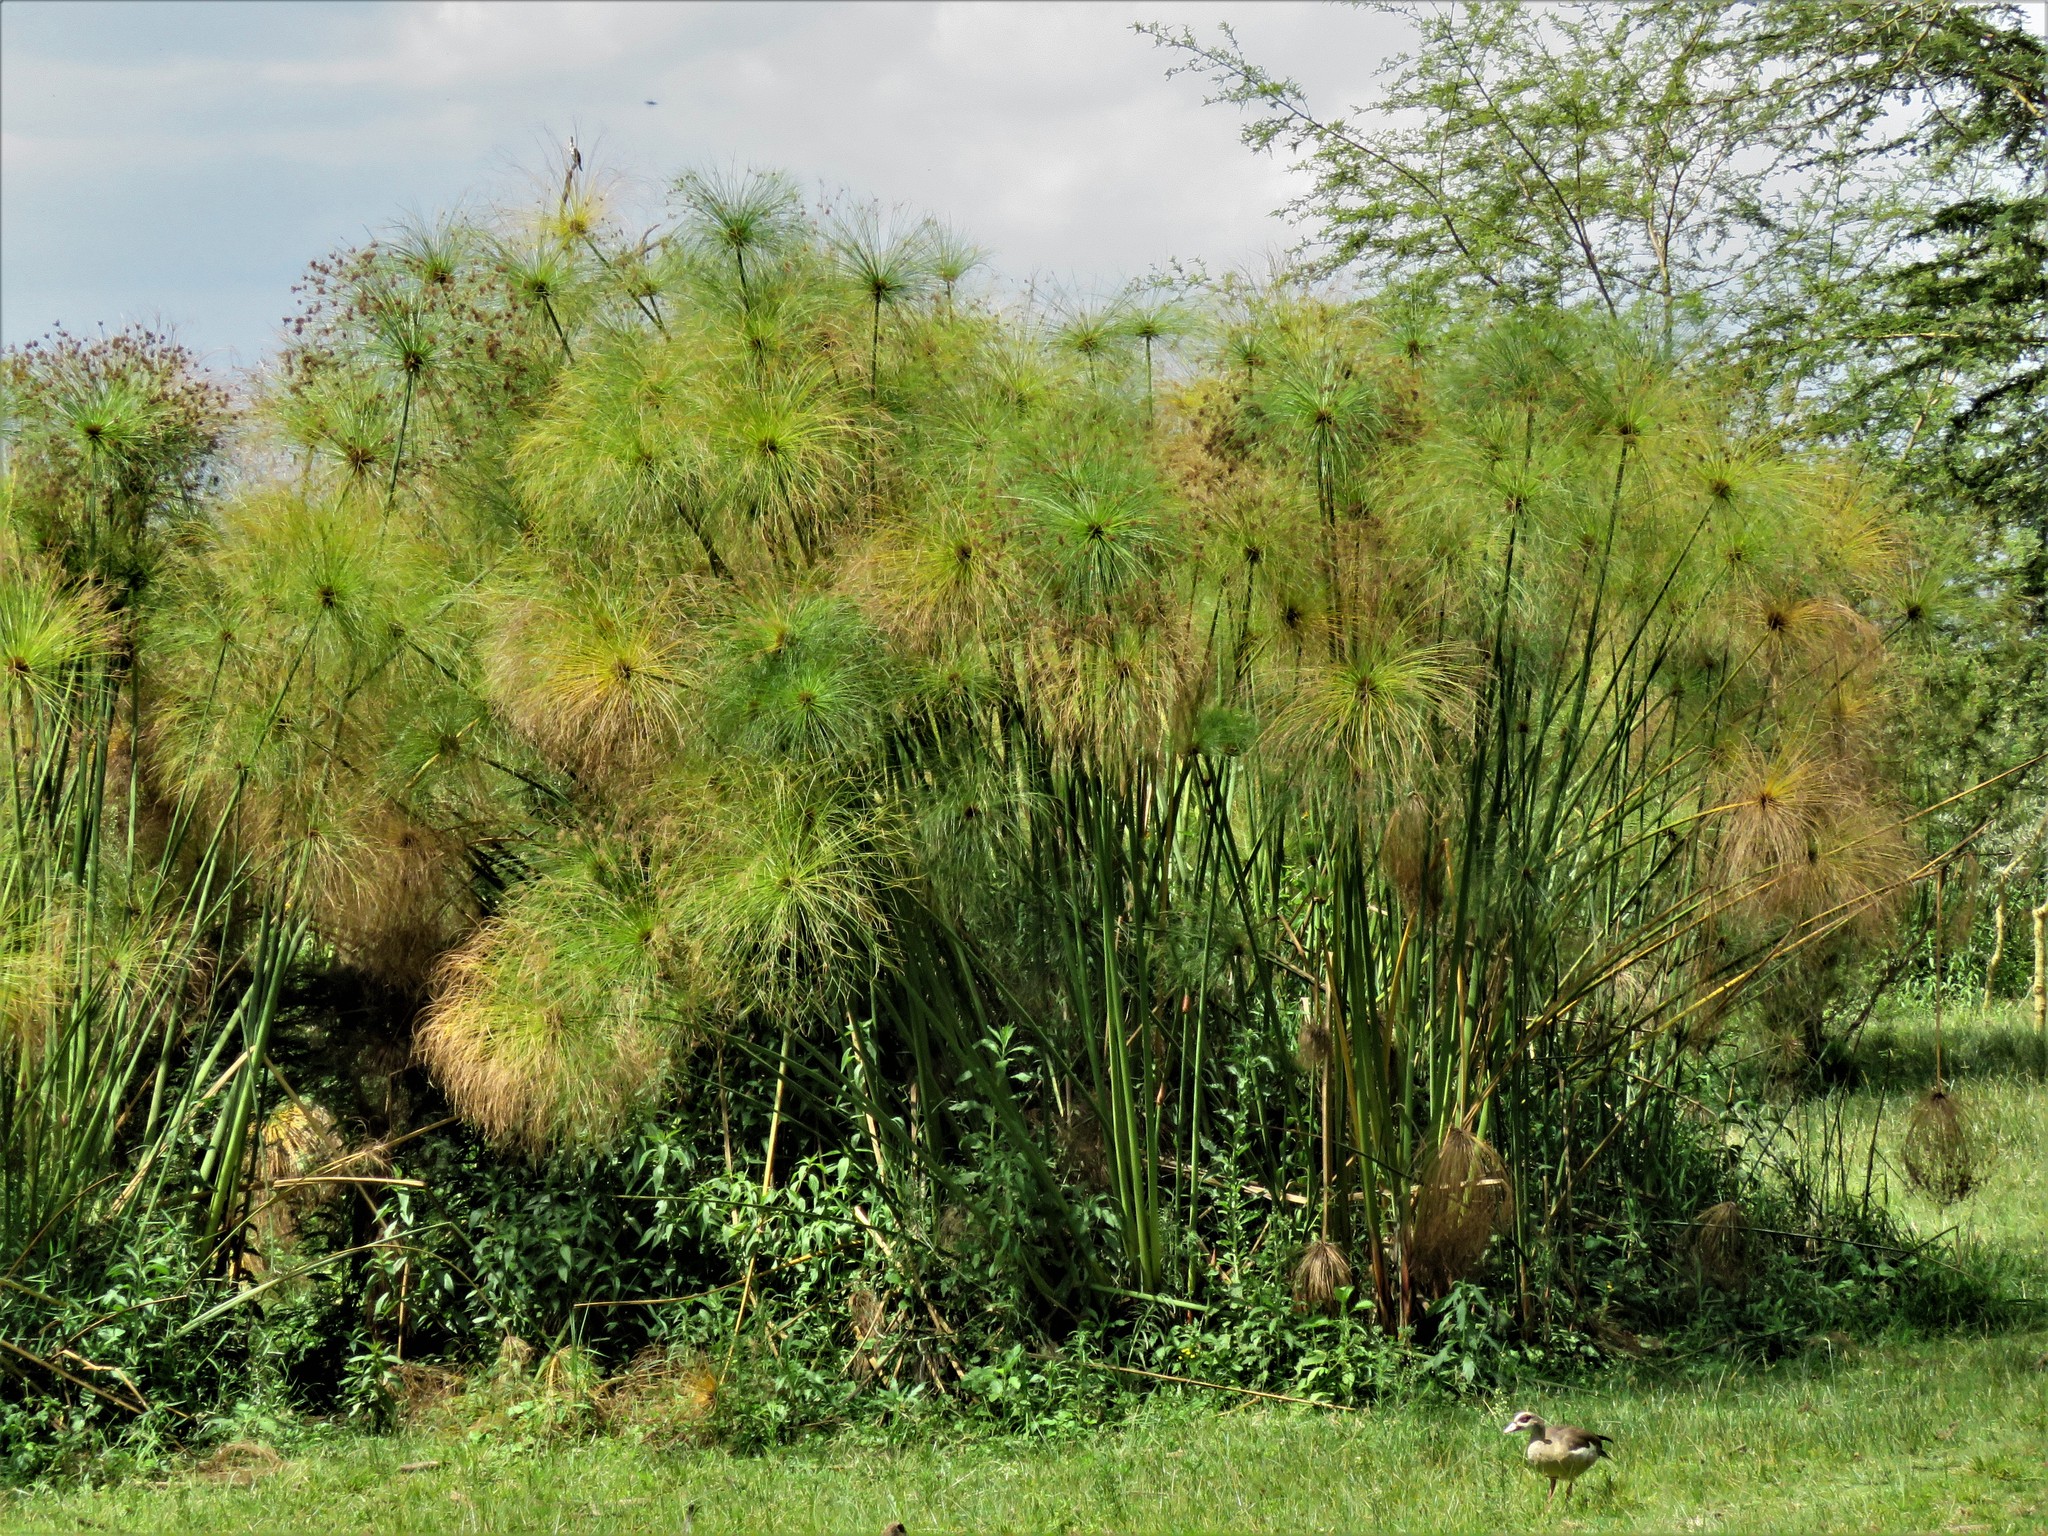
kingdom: Plantae
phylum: Tracheophyta
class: Liliopsida
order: Poales
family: Cyperaceae
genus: Cyperus
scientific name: Cyperus papyrus
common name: Papyrus
